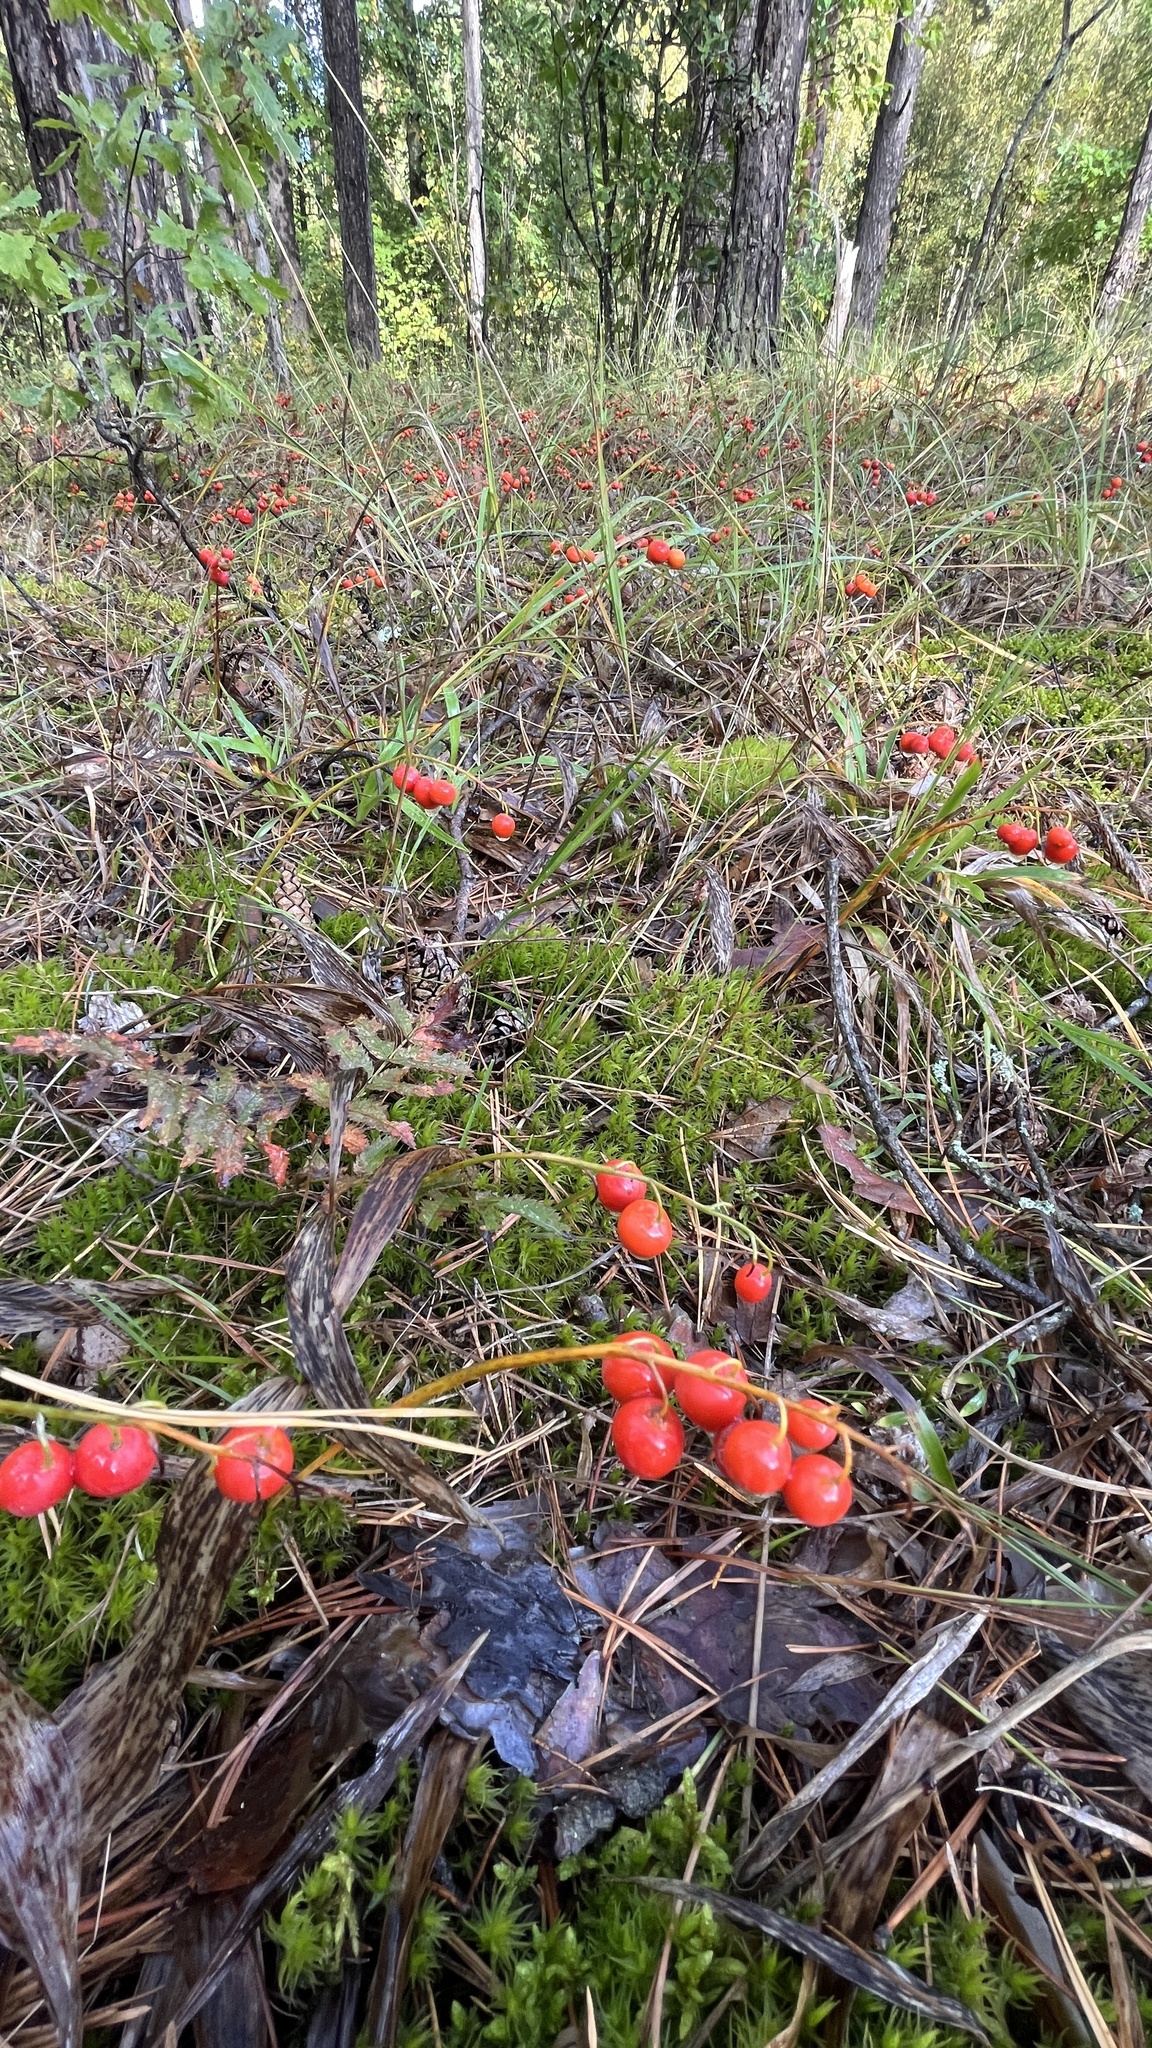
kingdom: Plantae
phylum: Tracheophyta
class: Liliopsida
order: Asparagales
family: Asparagaceae
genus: Convallaria
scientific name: Convallaria majalis
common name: Lily-of-the-valley
